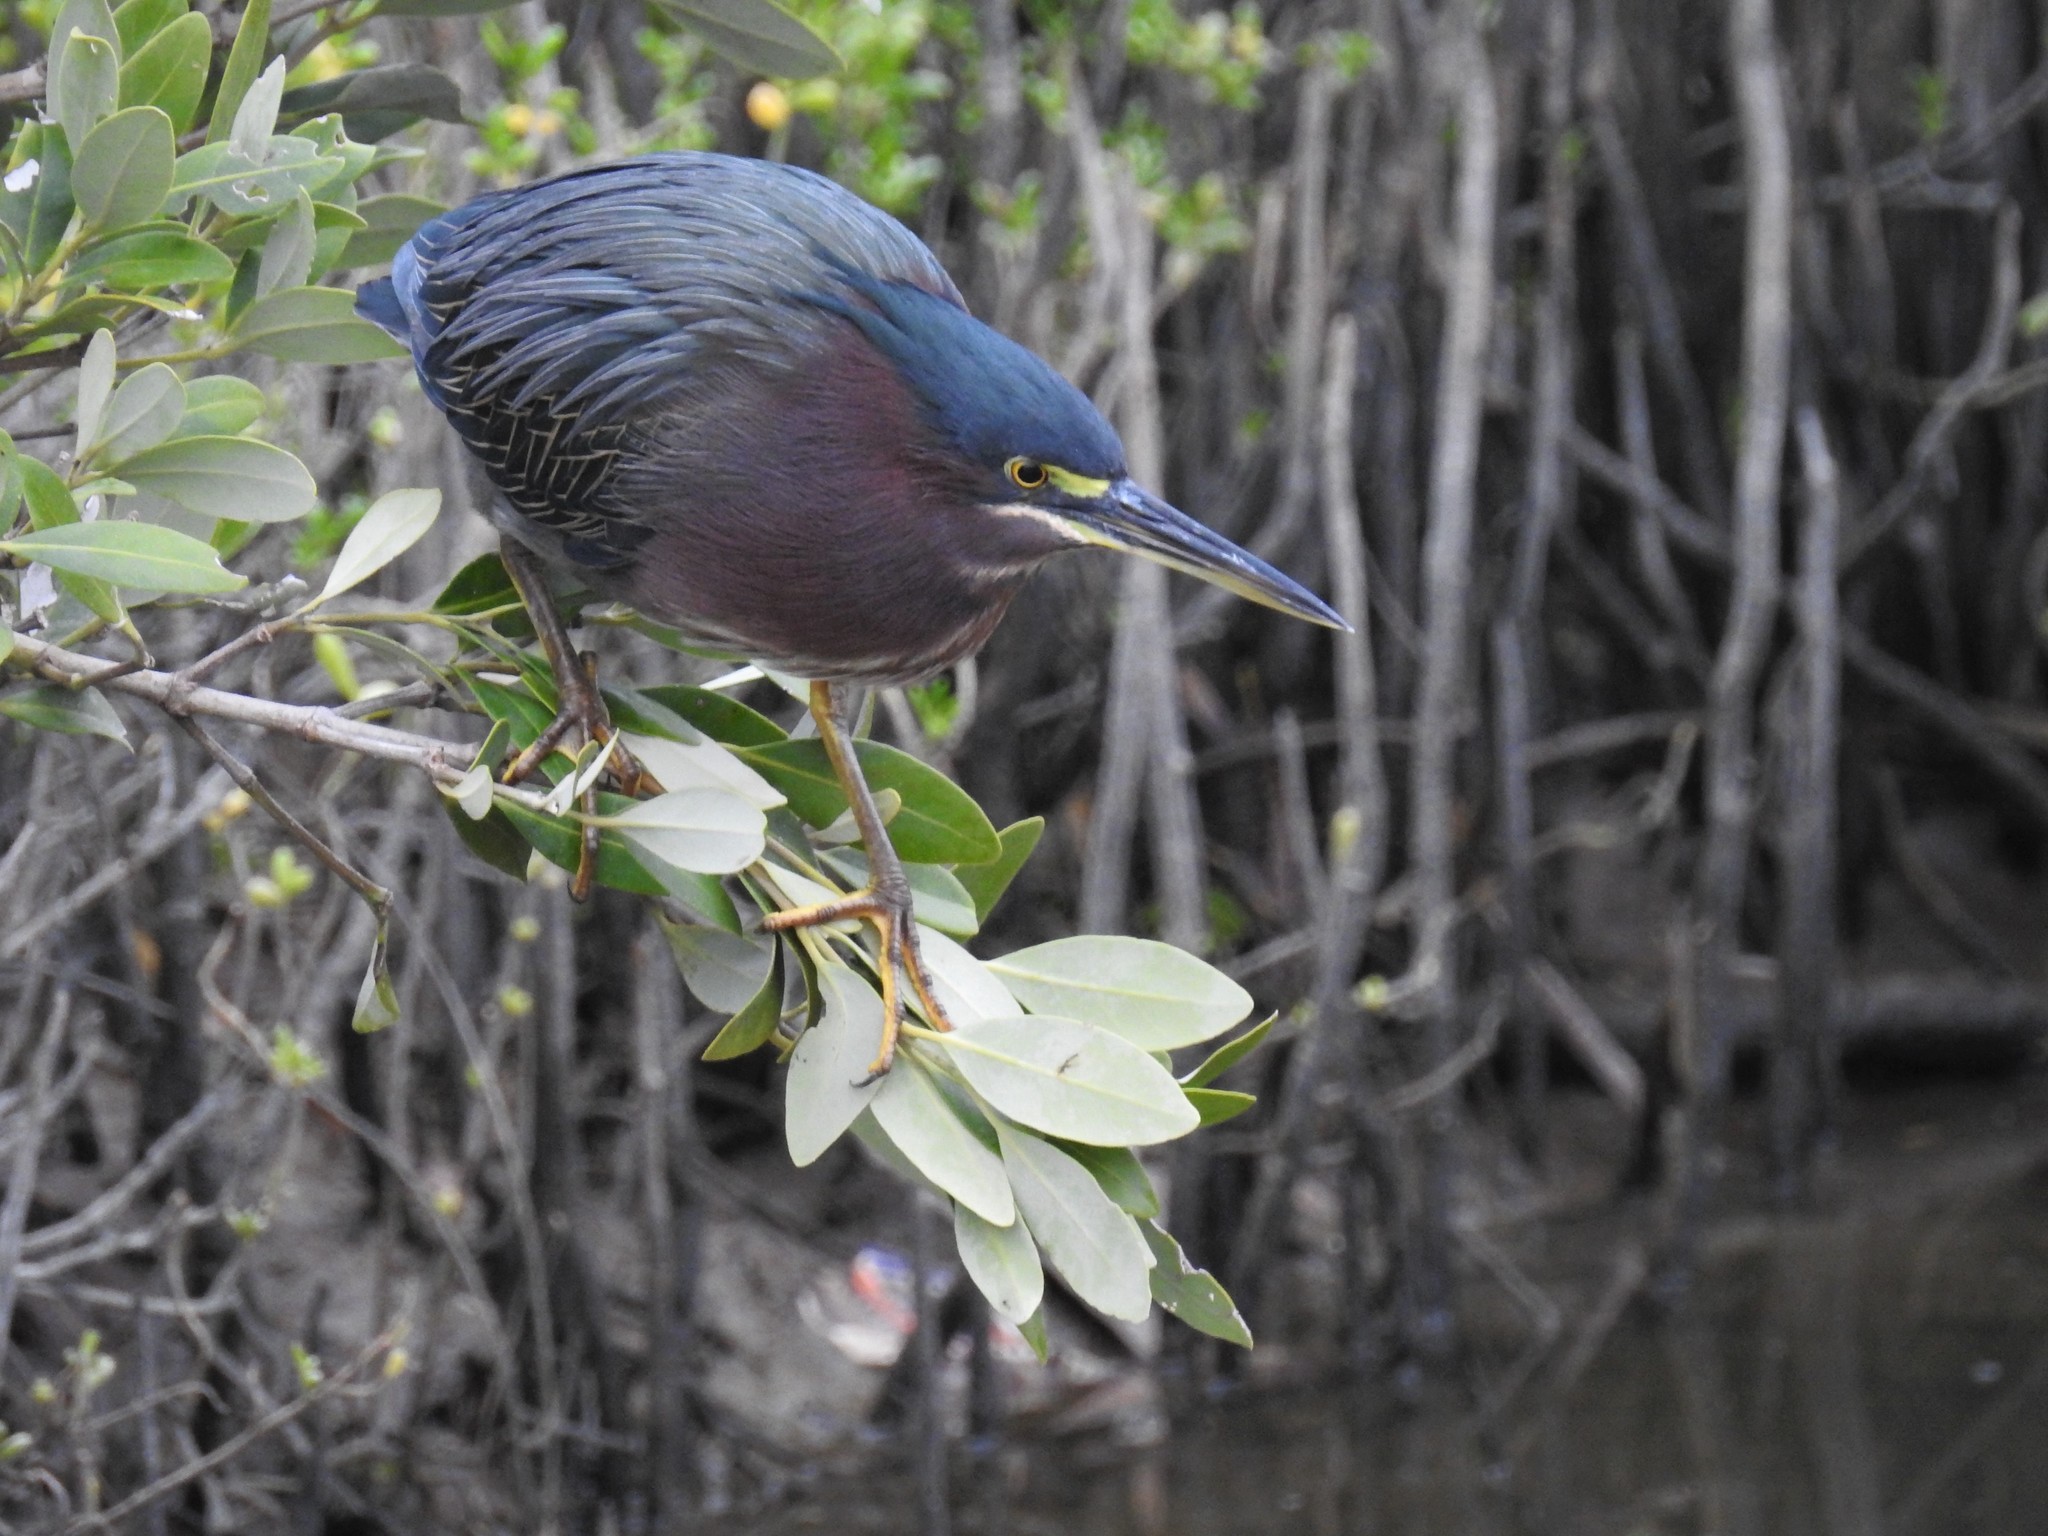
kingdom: Animalia
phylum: Chordata
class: Aves
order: Pelecaniformes
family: Ardeidae
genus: Butorides
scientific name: Butorides virescens
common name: Green heron
